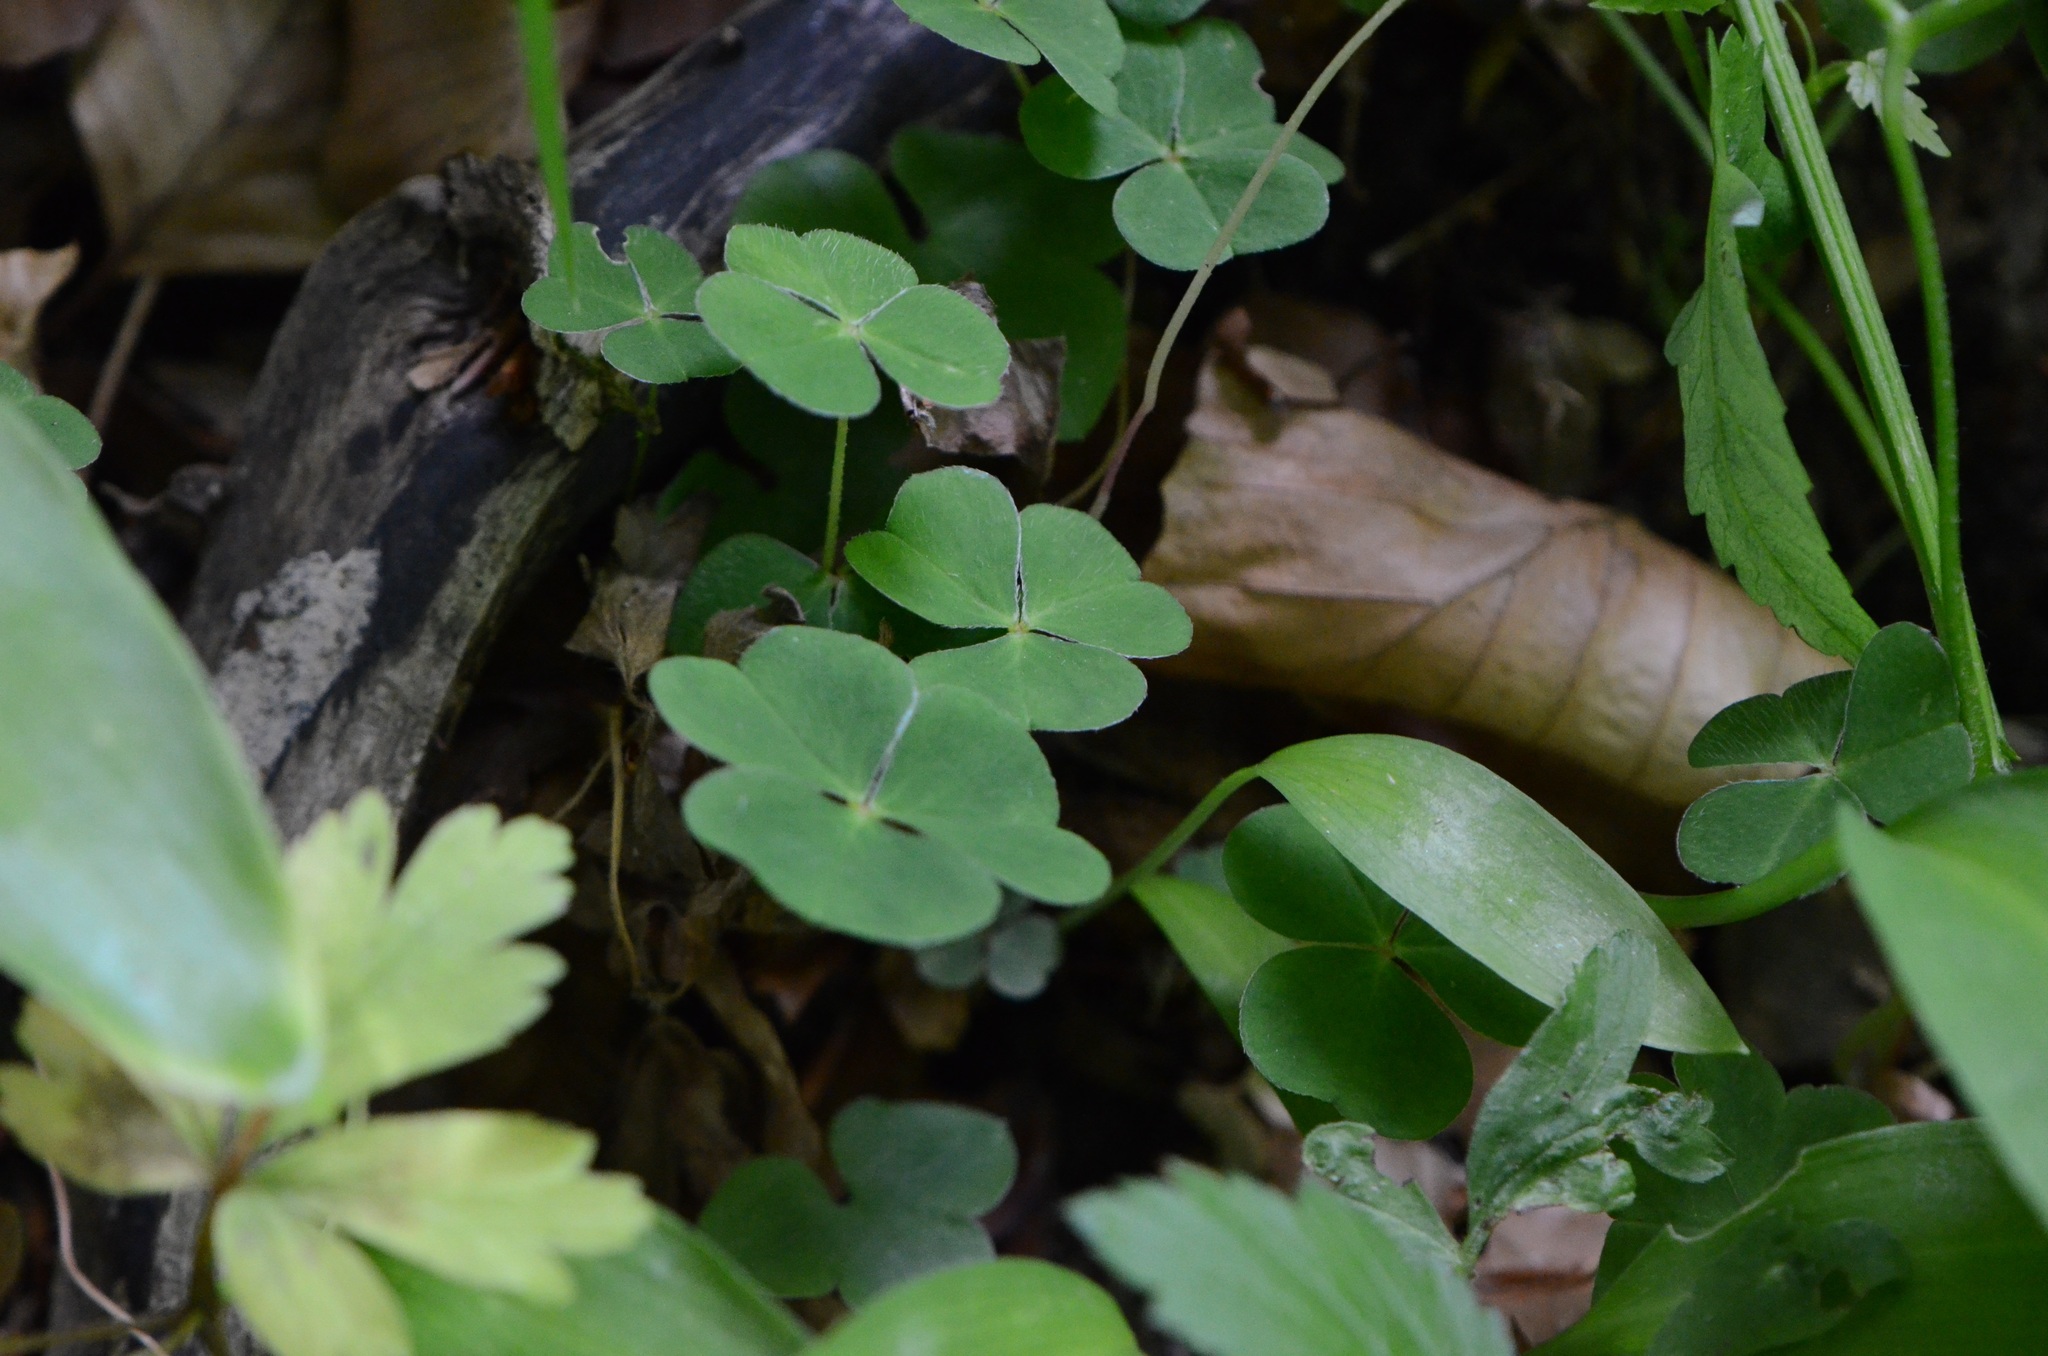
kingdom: Plantae
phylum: Tracheophyta
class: Liliopsida
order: Asparagales
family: Amaryllidaceae
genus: Allium
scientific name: Allium ursinum
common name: Ramsons
